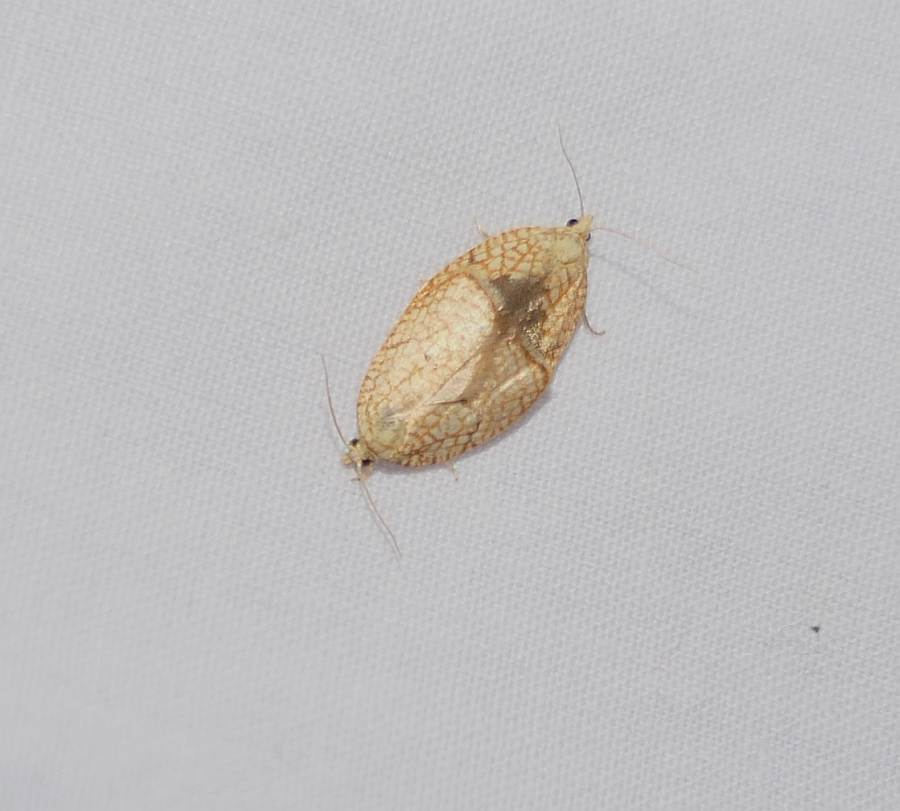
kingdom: Animalia
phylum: Arthropoda
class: Insecta
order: Lepidoptera
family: Tortricidae
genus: Acleris
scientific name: Acleris forsskaleana
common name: Maple button
